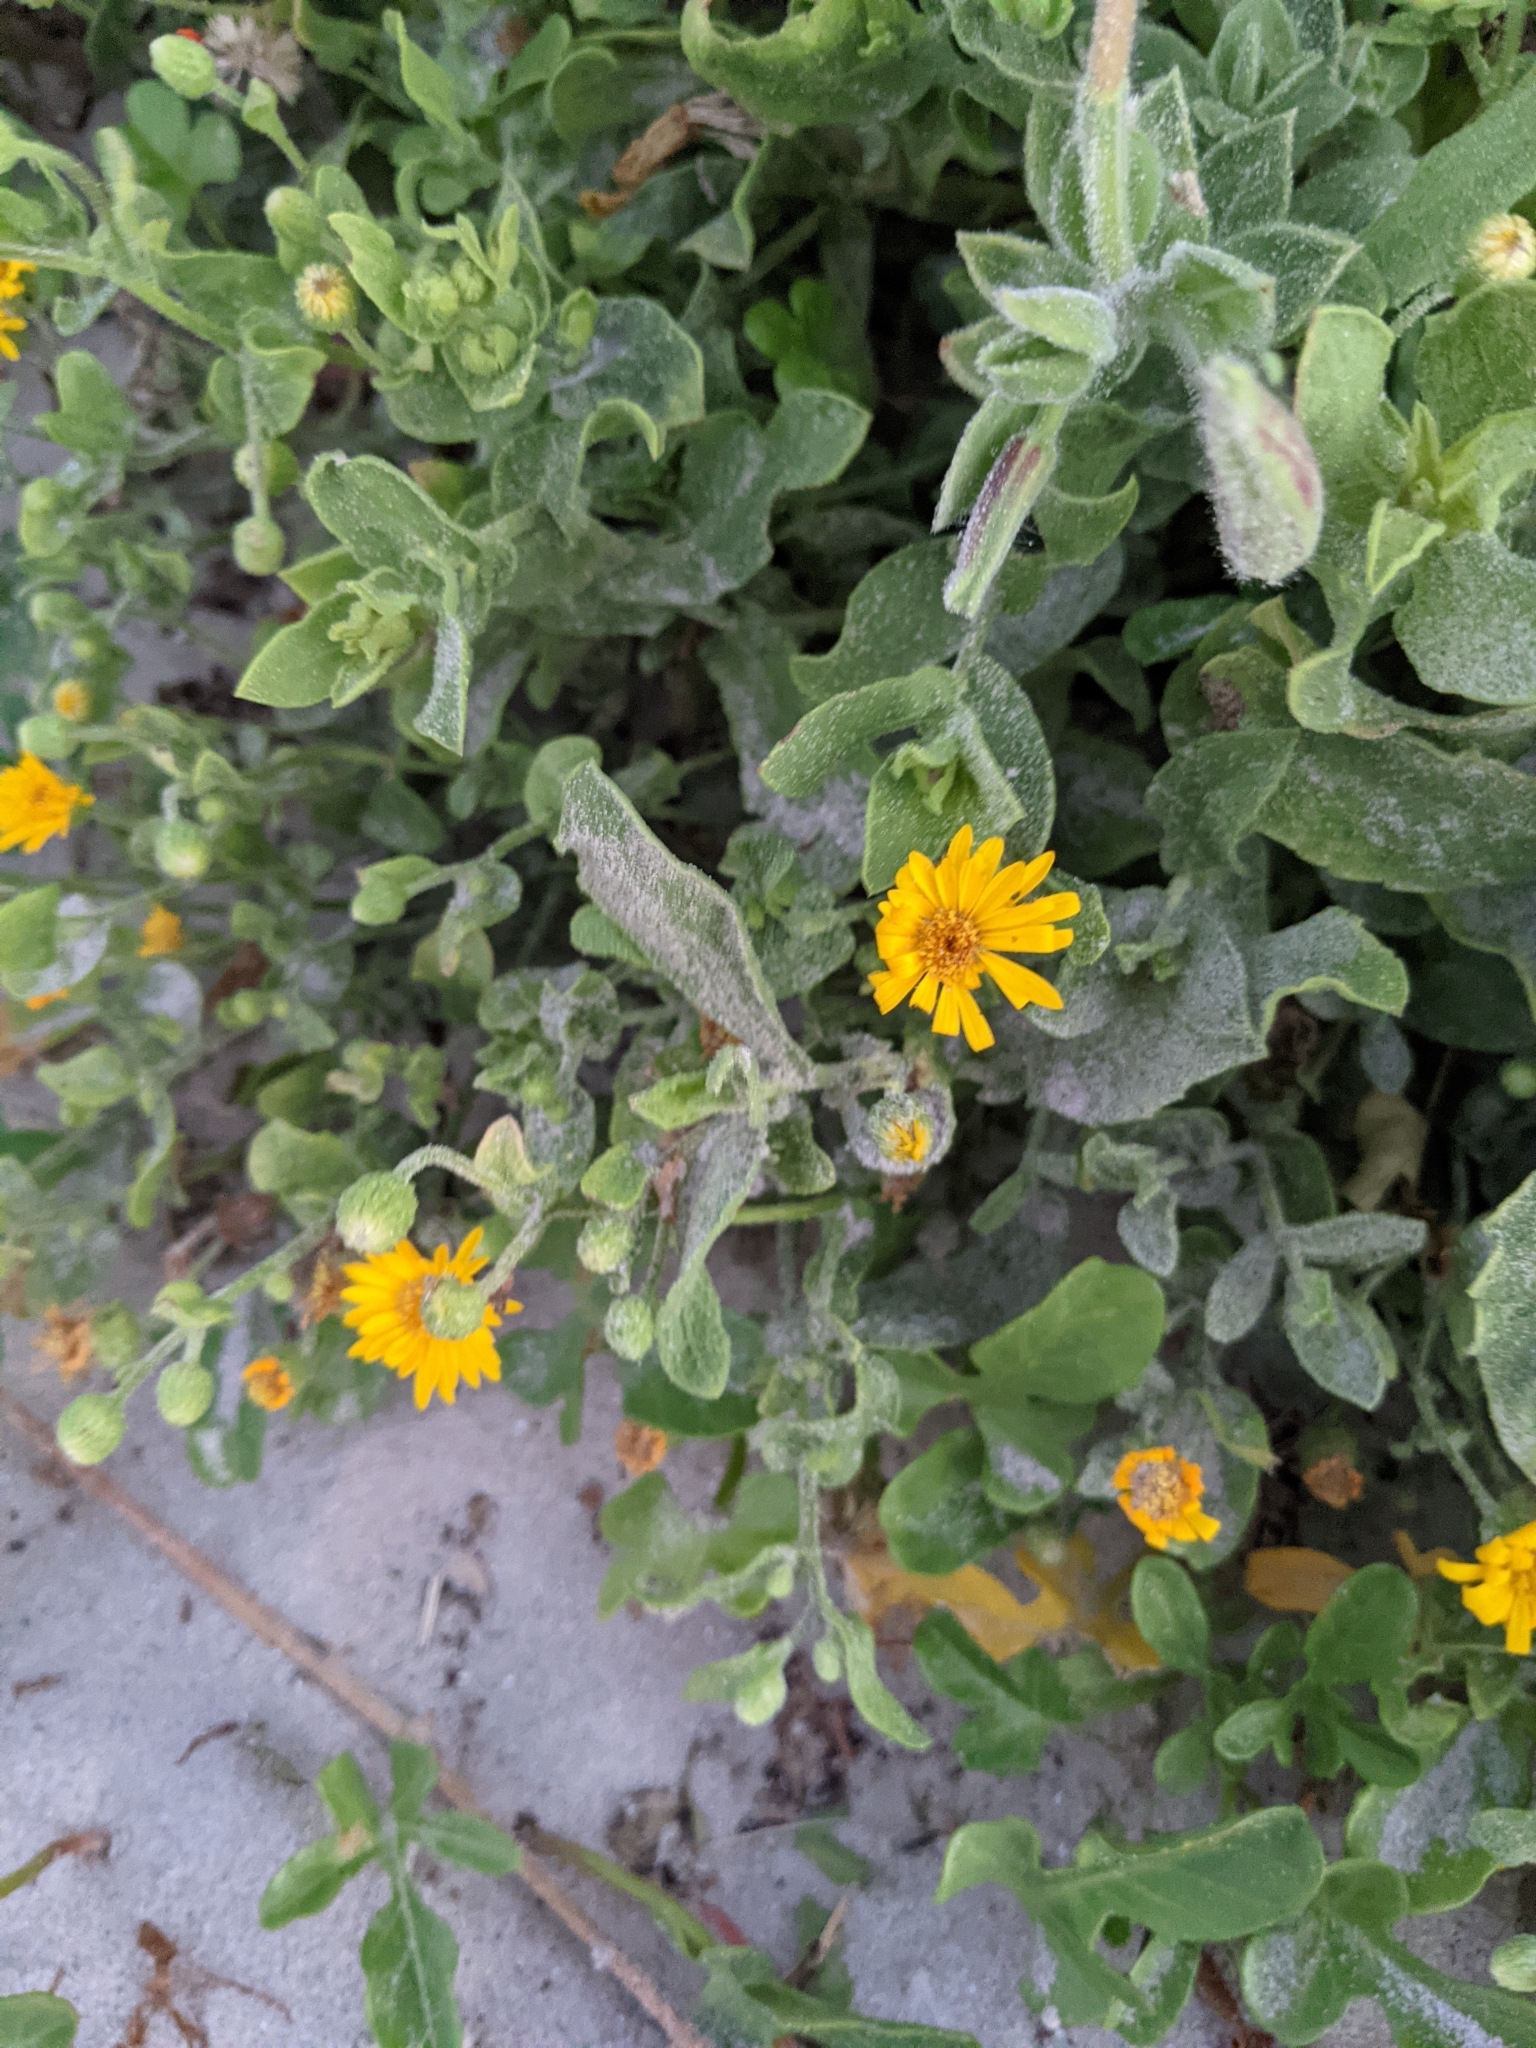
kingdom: Plantae
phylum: Tracheophyta
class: Magnoliopsida
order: Asterales
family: Asteraceae
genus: Heterotheca
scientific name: Heterotheca subaxillaris
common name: Camphorweed
